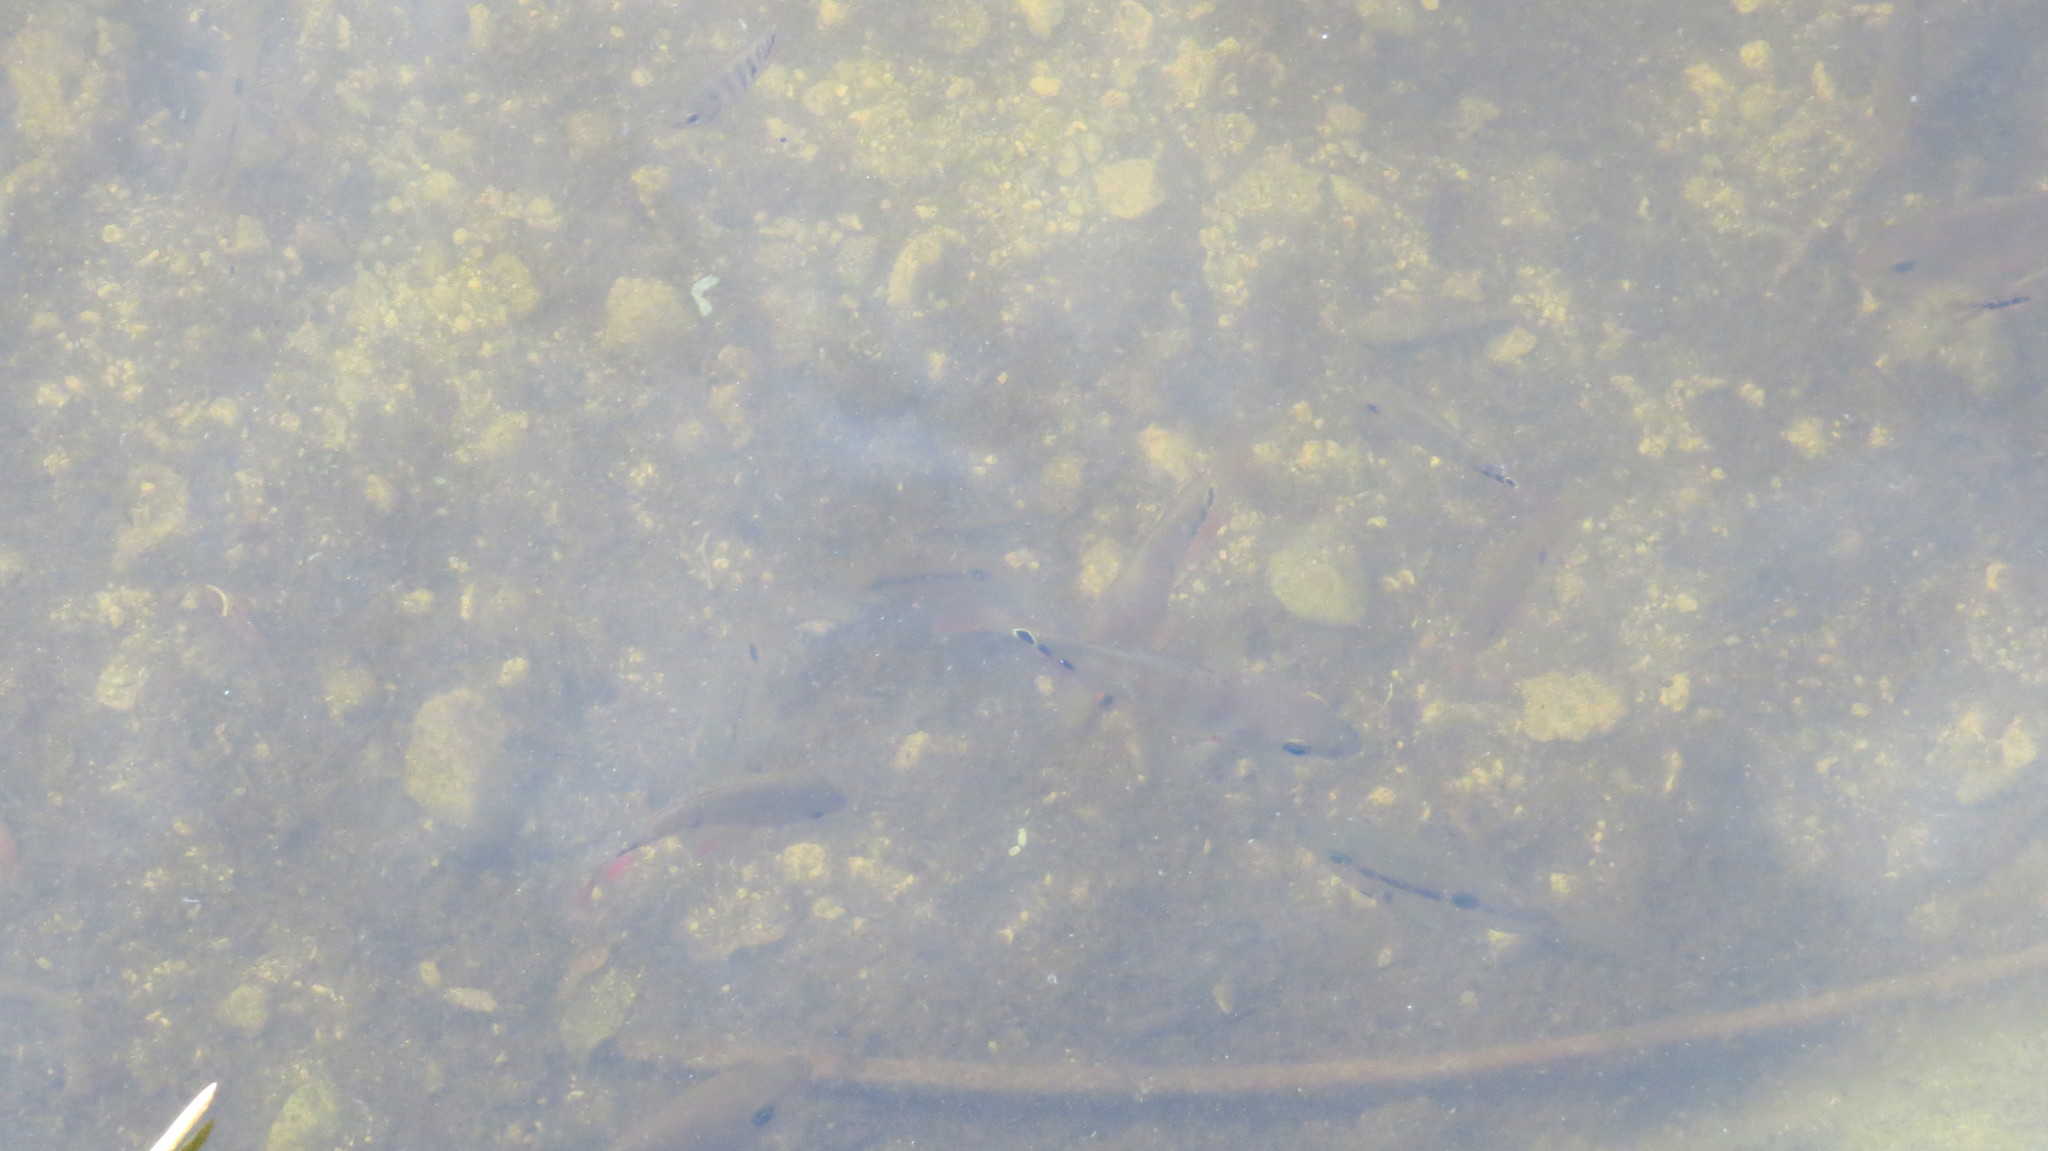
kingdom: Animalia
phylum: Chordata
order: Perciformes
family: Cichlidae
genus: Mayaheros
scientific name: Mayaheros urophthalmus
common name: Mayan cichlid
